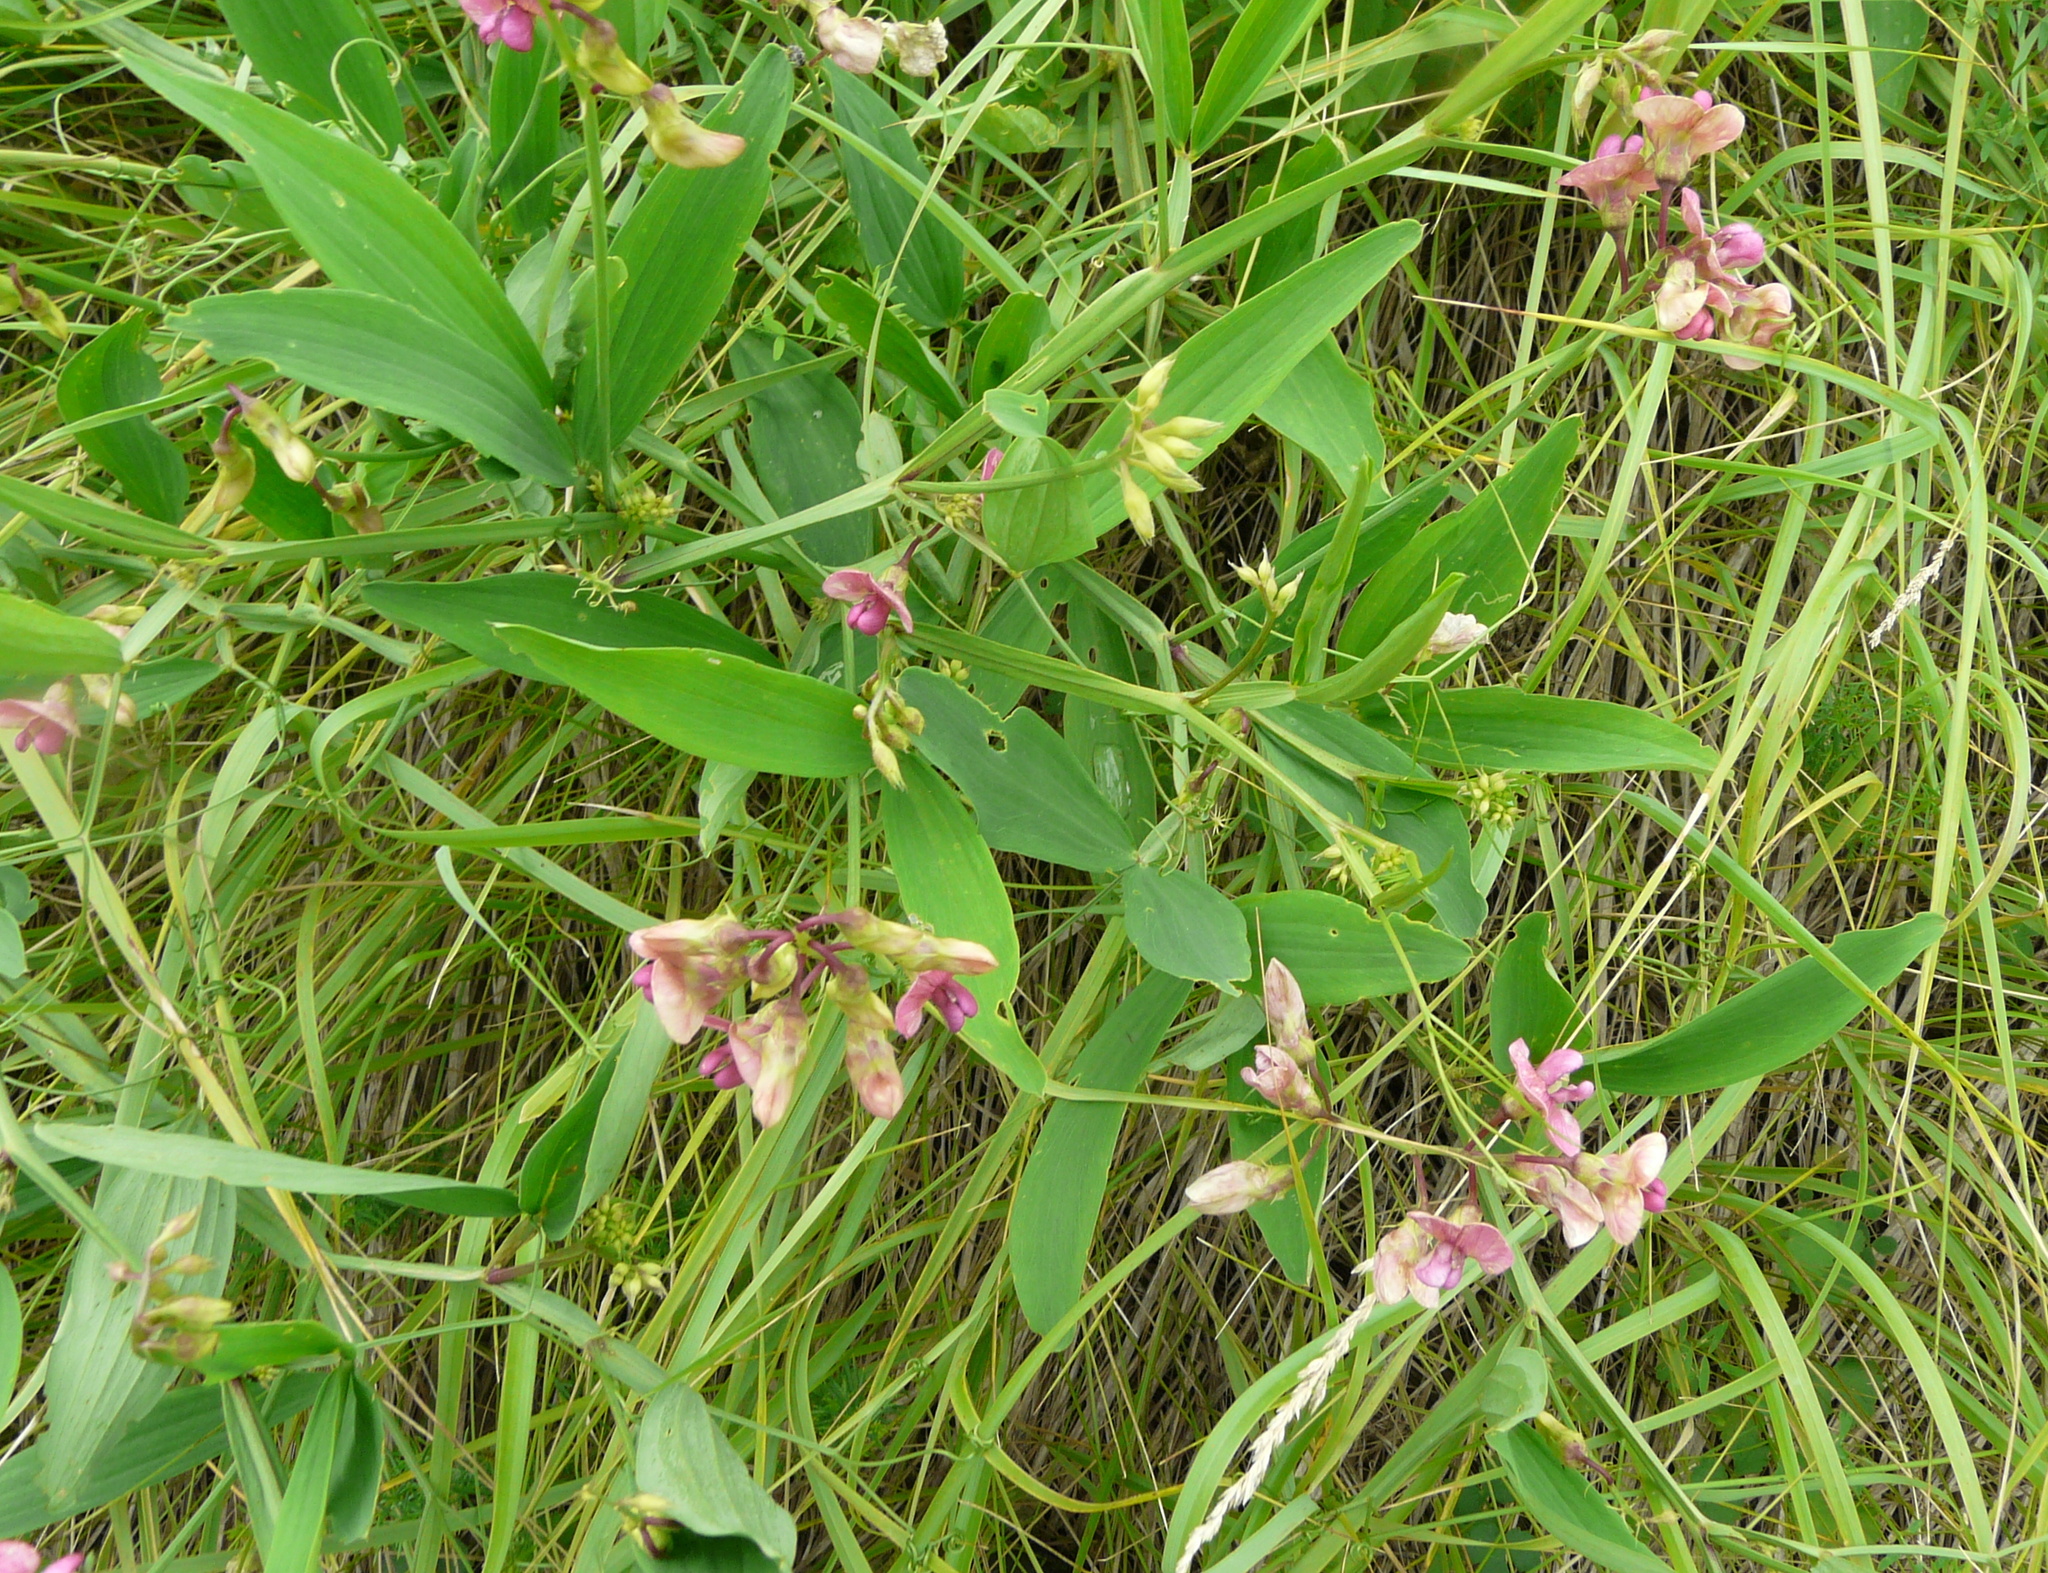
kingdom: Plantae
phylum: Tracheophyta
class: Magnoliopsida
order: Fabales
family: Fabaceae
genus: Lathyrus
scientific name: Lathyrus sylvestris
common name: Flat pea
